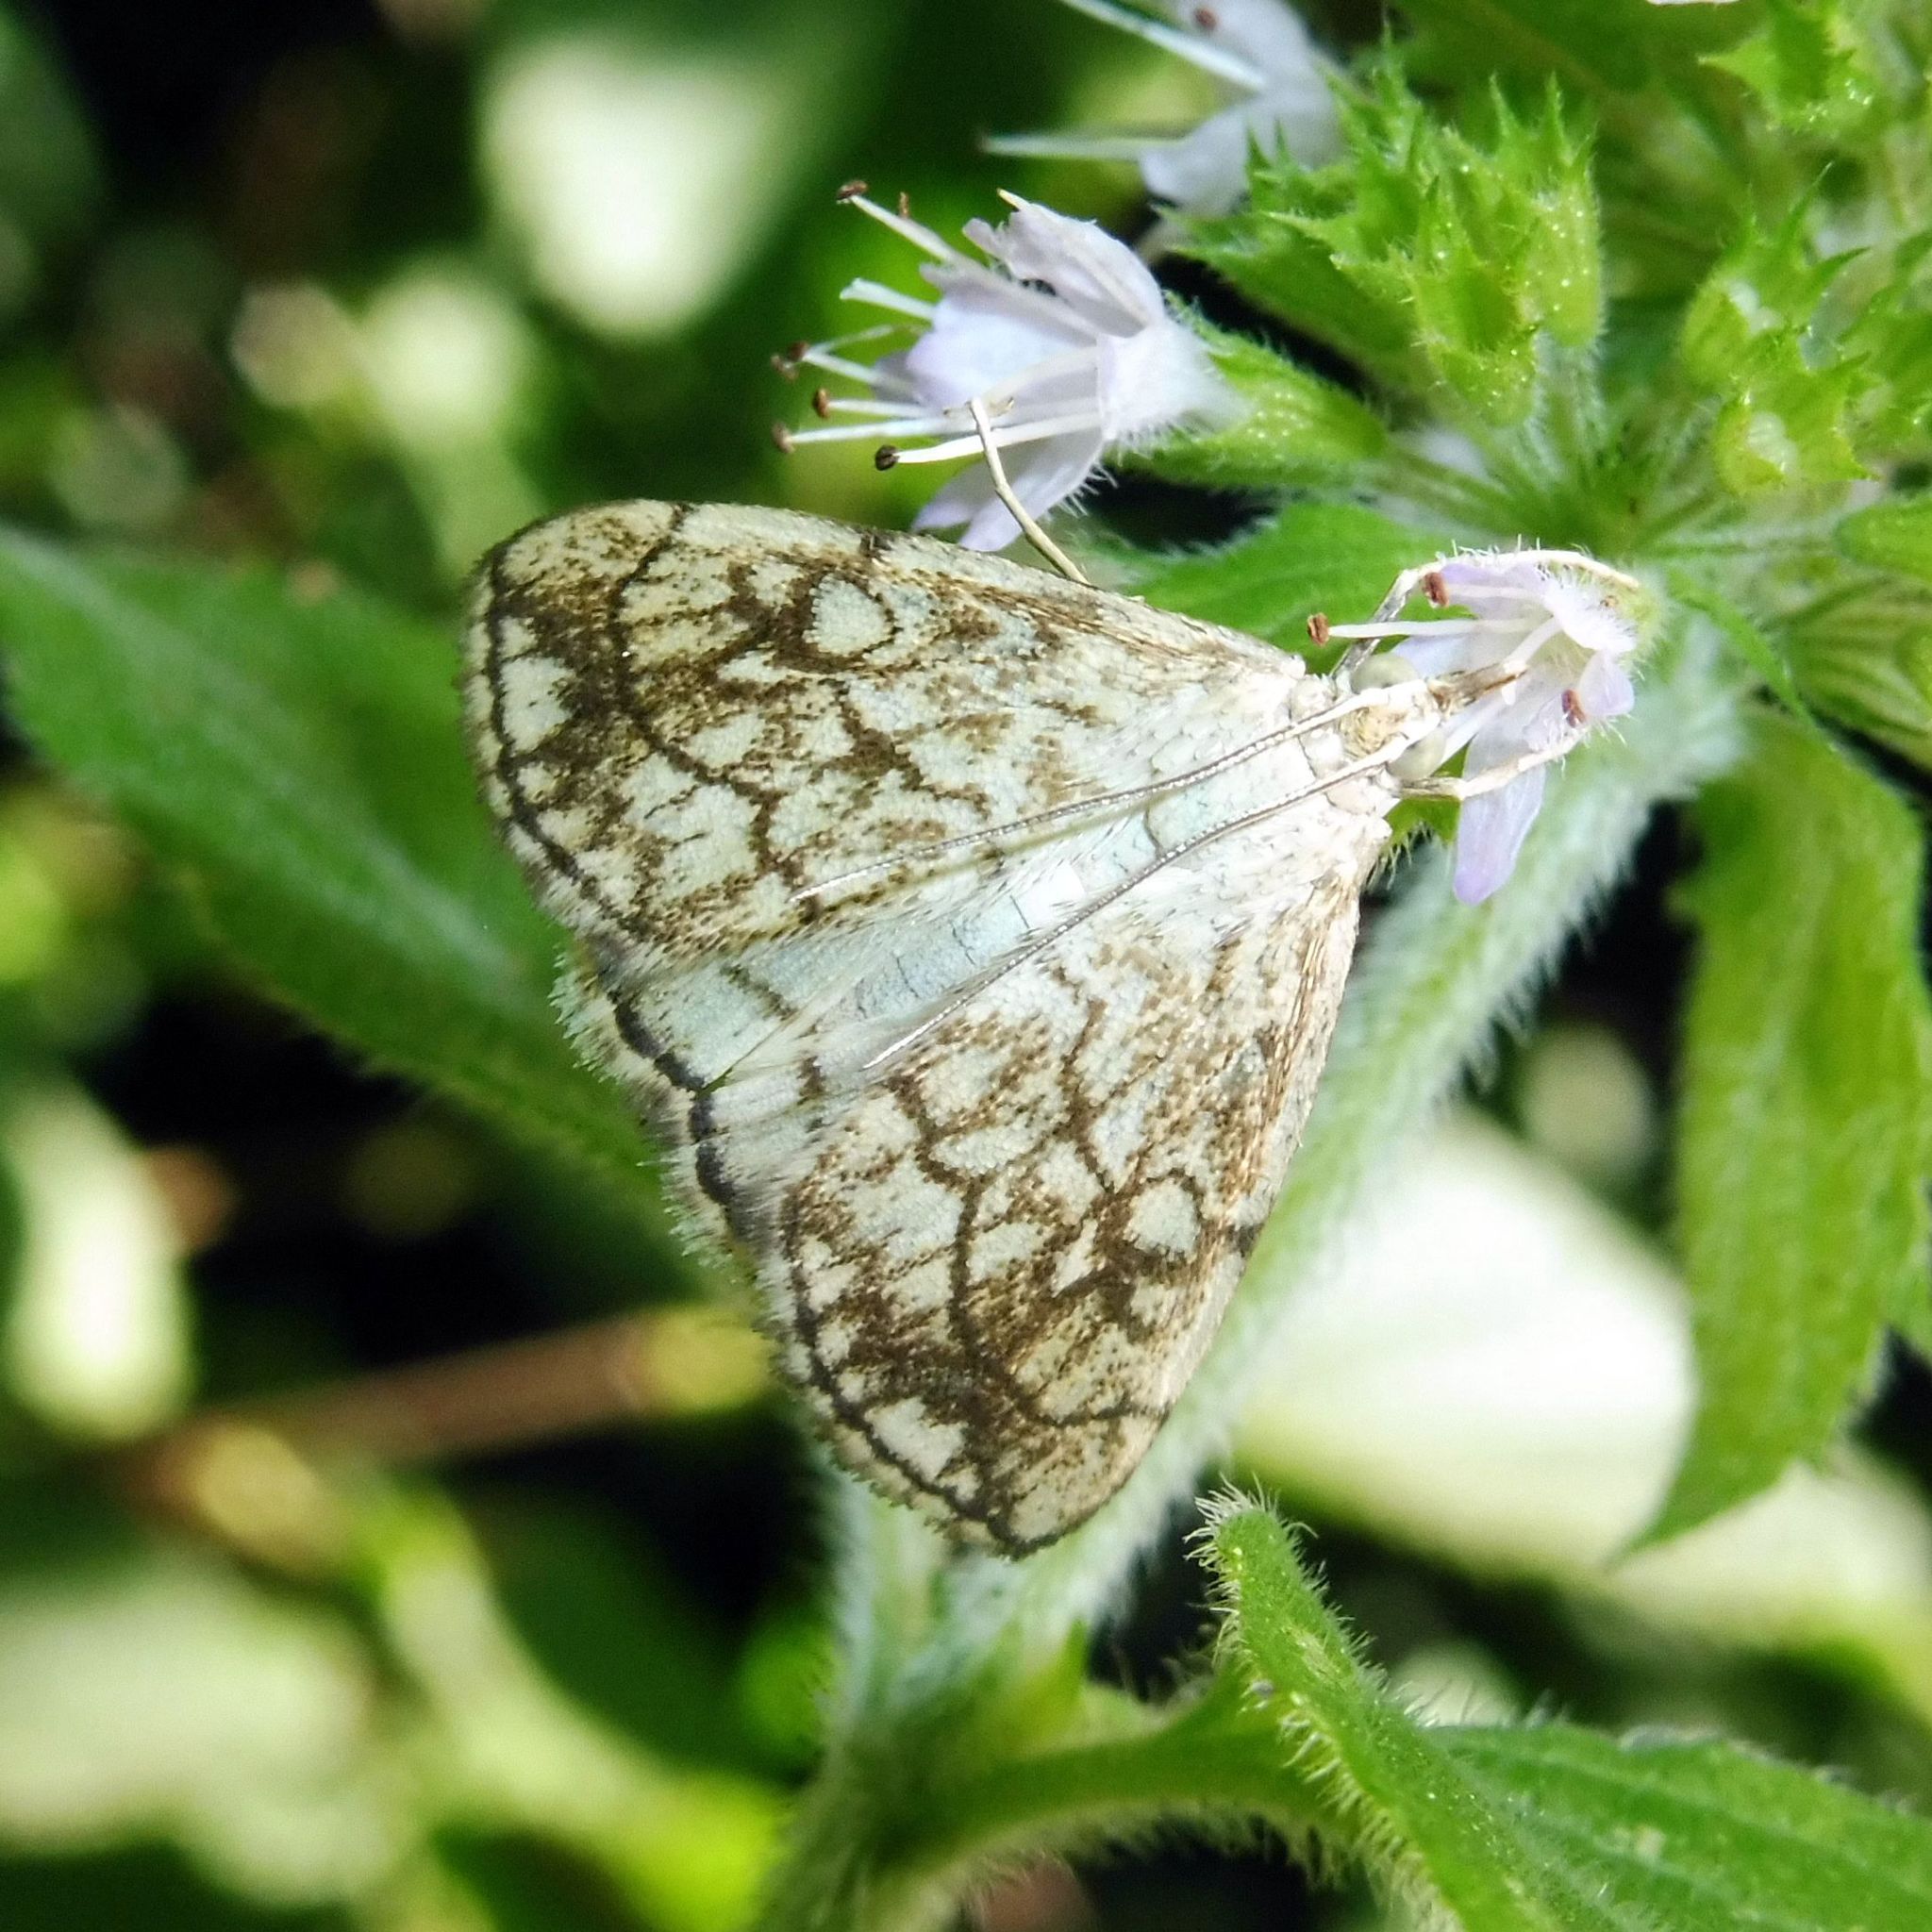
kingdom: Animalia
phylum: Arthropoda
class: Insecta
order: Lepidoptera
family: Crambidae
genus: Evergestis
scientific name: Evergestis pallidata
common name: Chequered pearl
